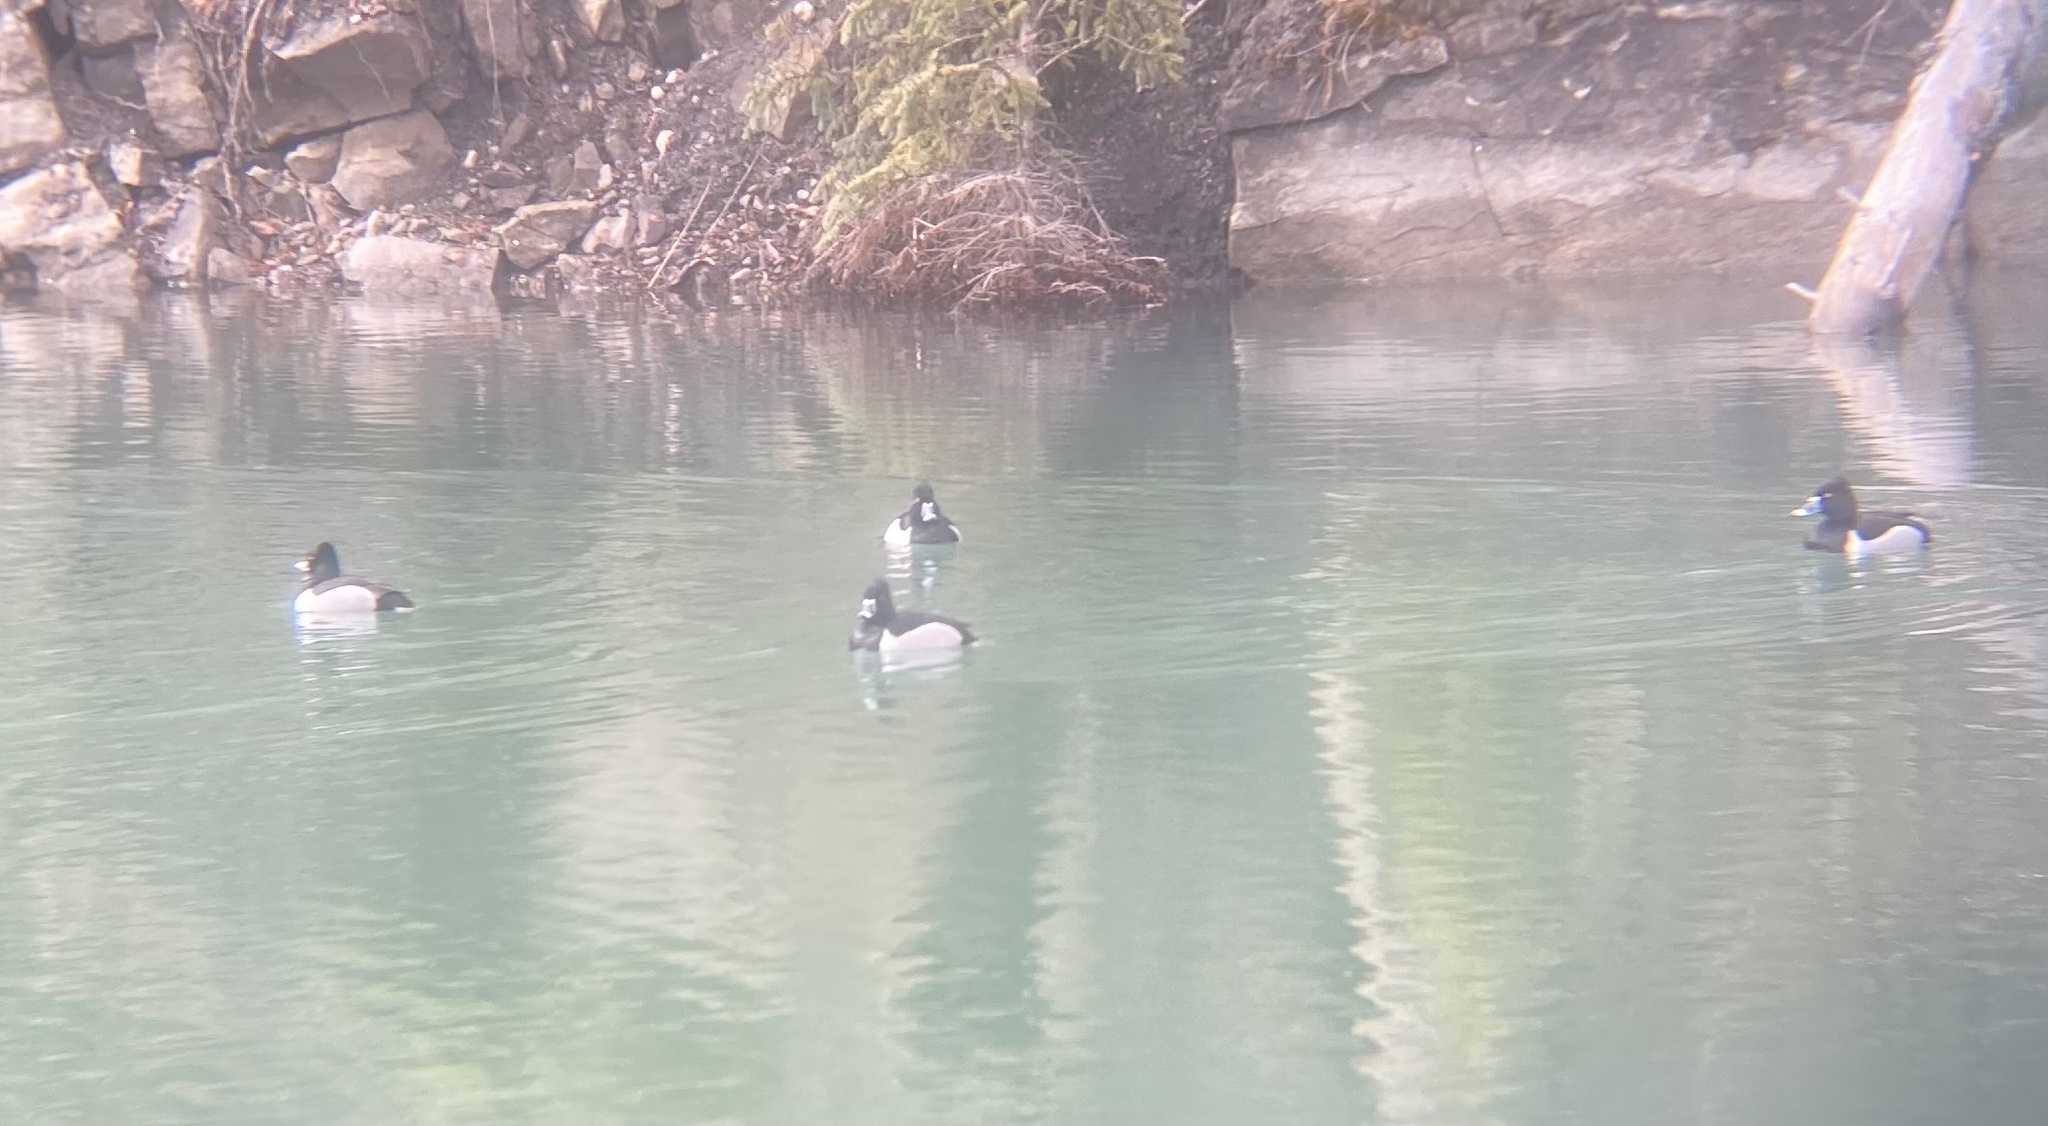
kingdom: Animalia
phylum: Chordata
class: Aves
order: Anseriformes
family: Anatidae
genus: Aythya
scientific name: Aythya collaris
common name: Ring-necked duck
